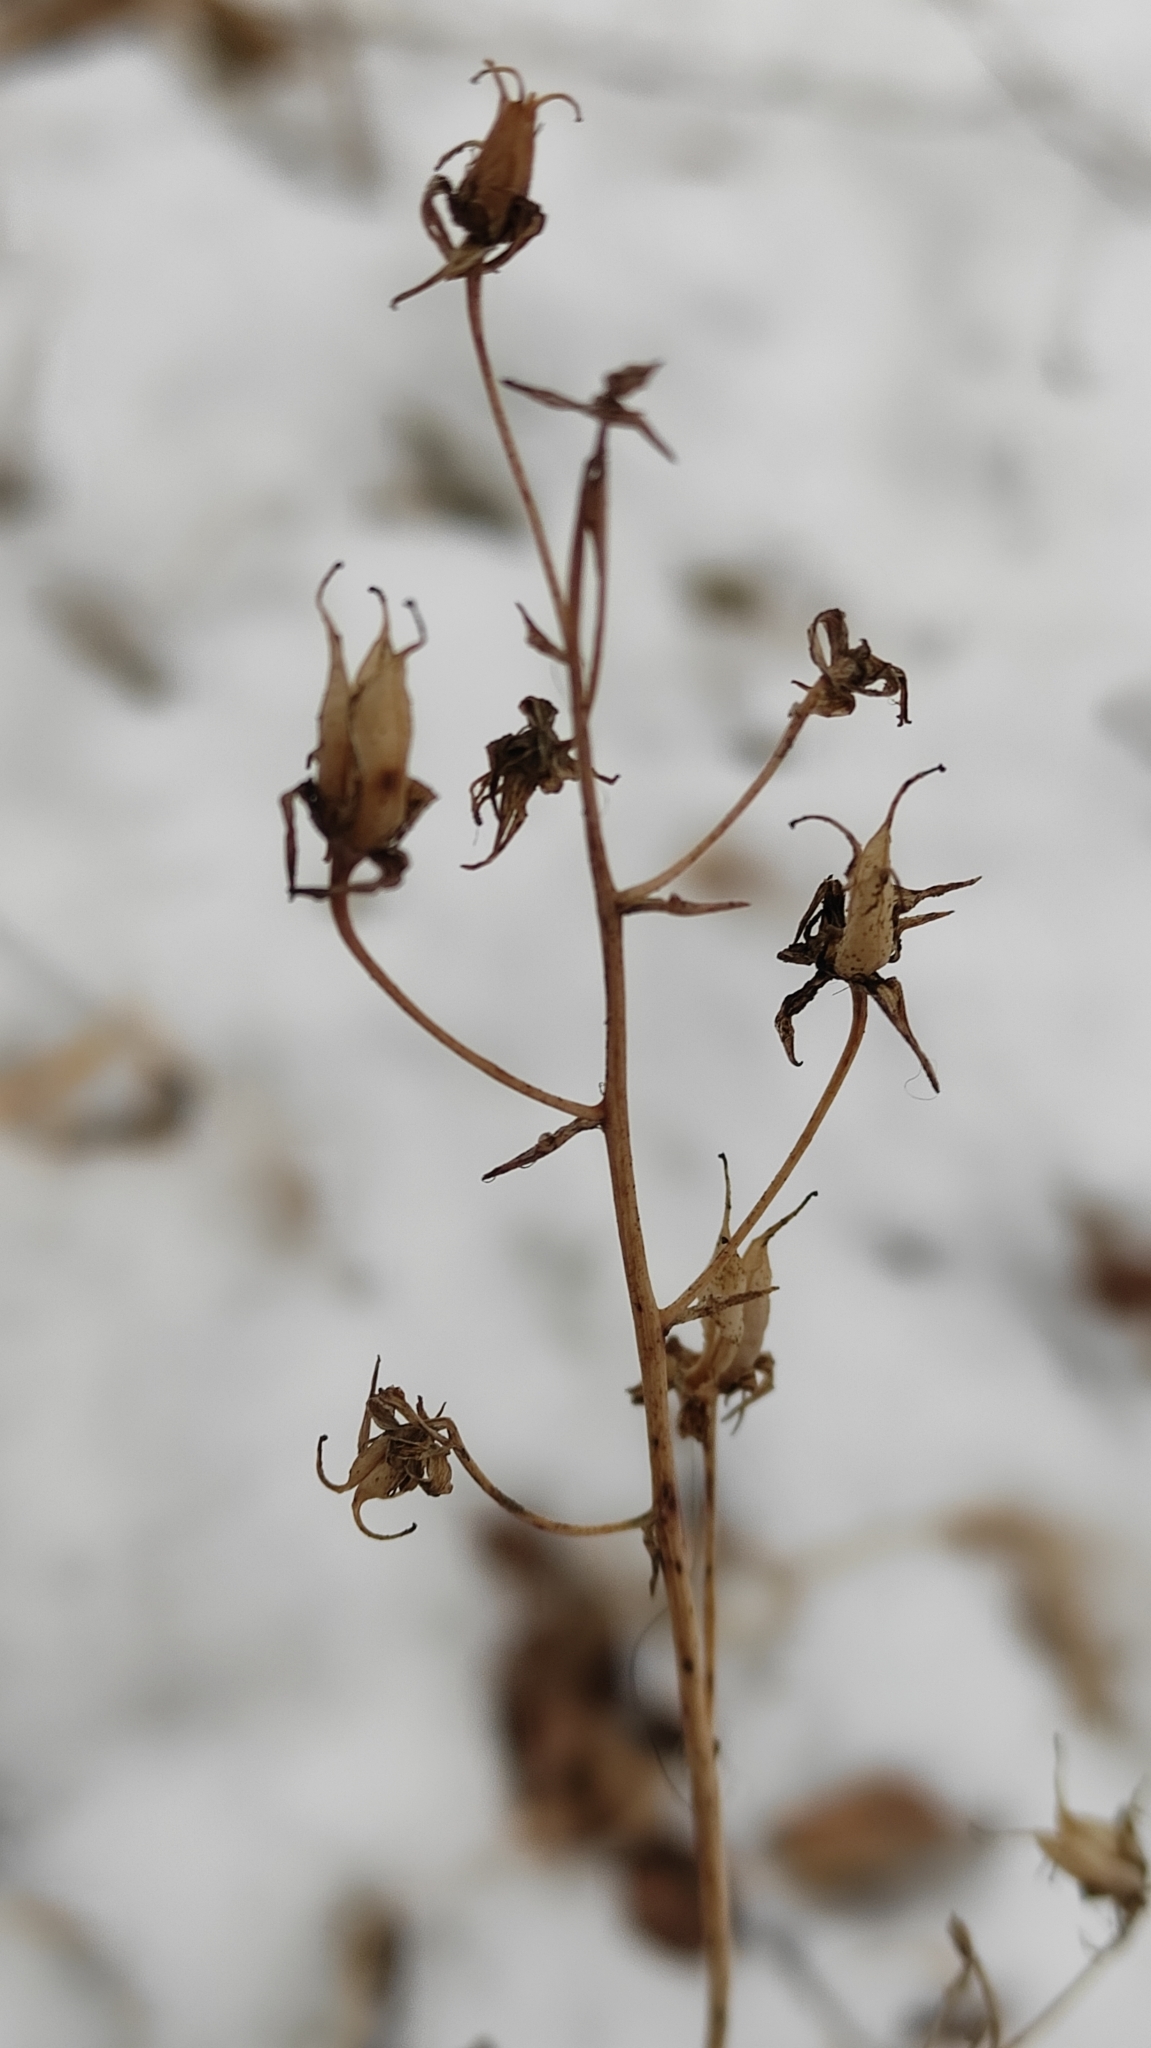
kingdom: Plantae
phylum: Tracheophyta
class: Liliopsida
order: Liliales
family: Melanthiaceae
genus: Anticlea
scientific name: Anticlea sibirica
